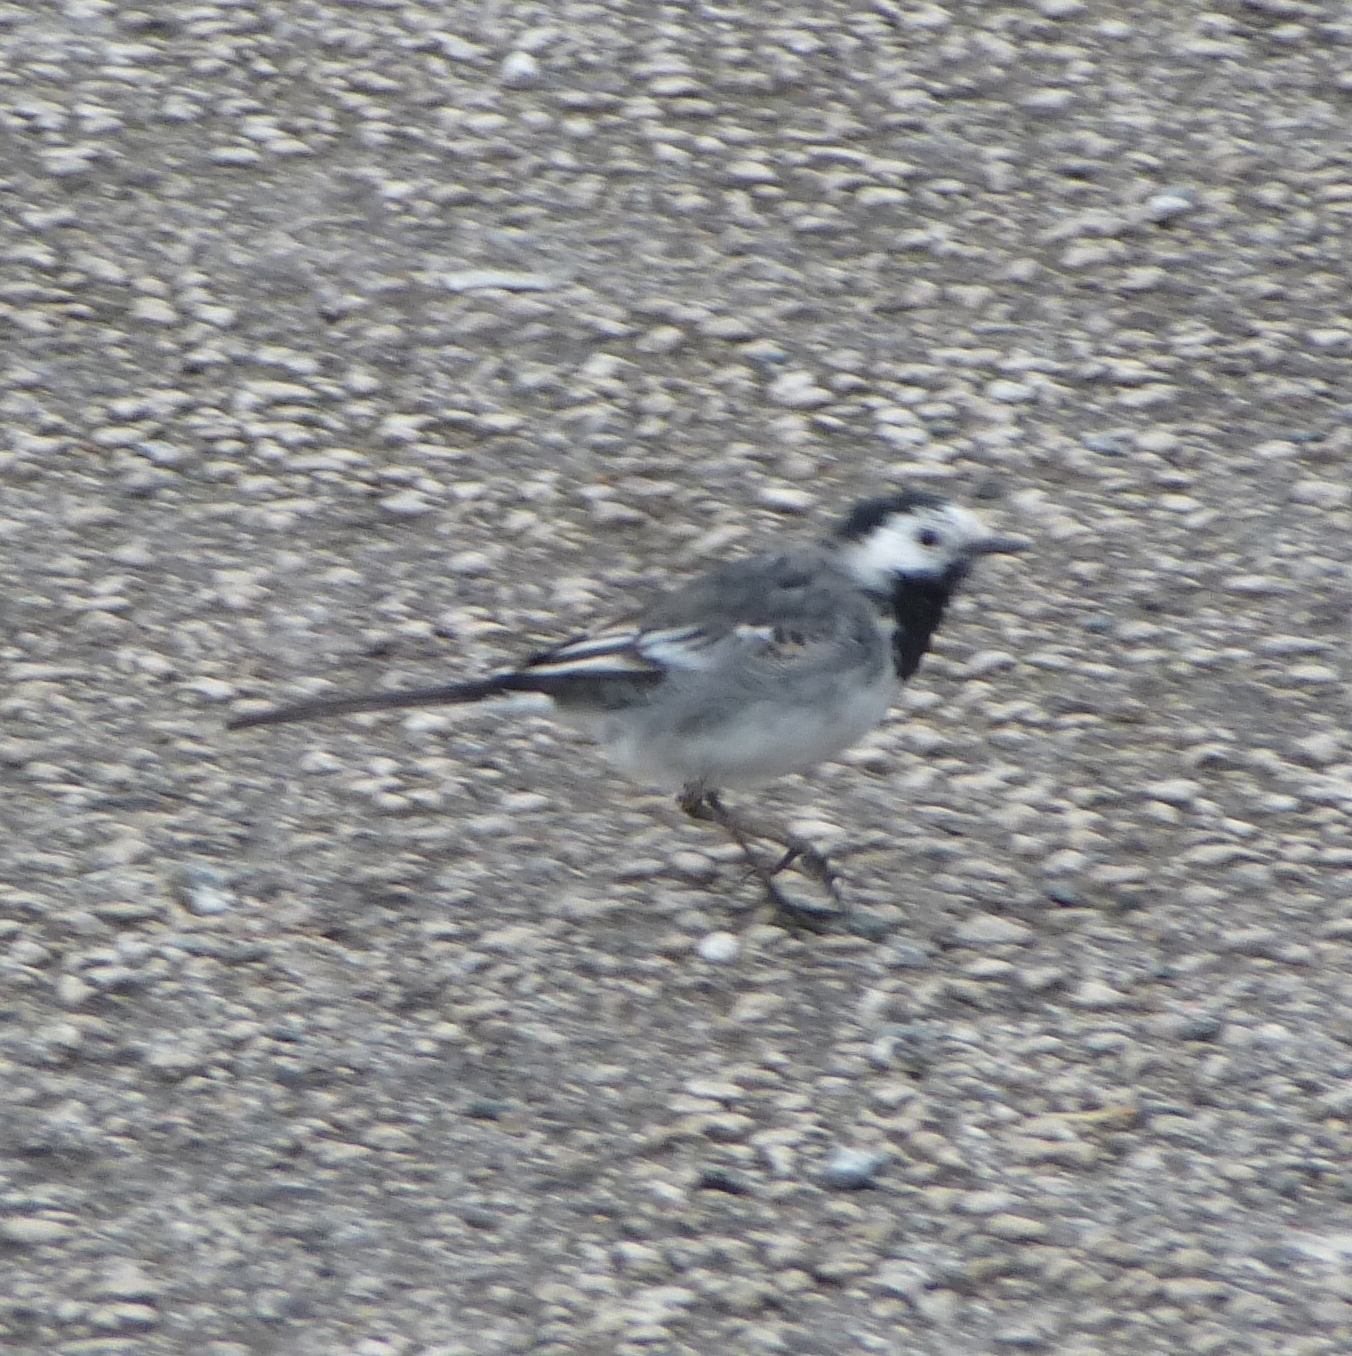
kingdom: Animalia
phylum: Chordata
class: Aves
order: Passeriformes
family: Motacillidae
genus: Motacilla
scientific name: Motacilla alba
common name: White wagtail
